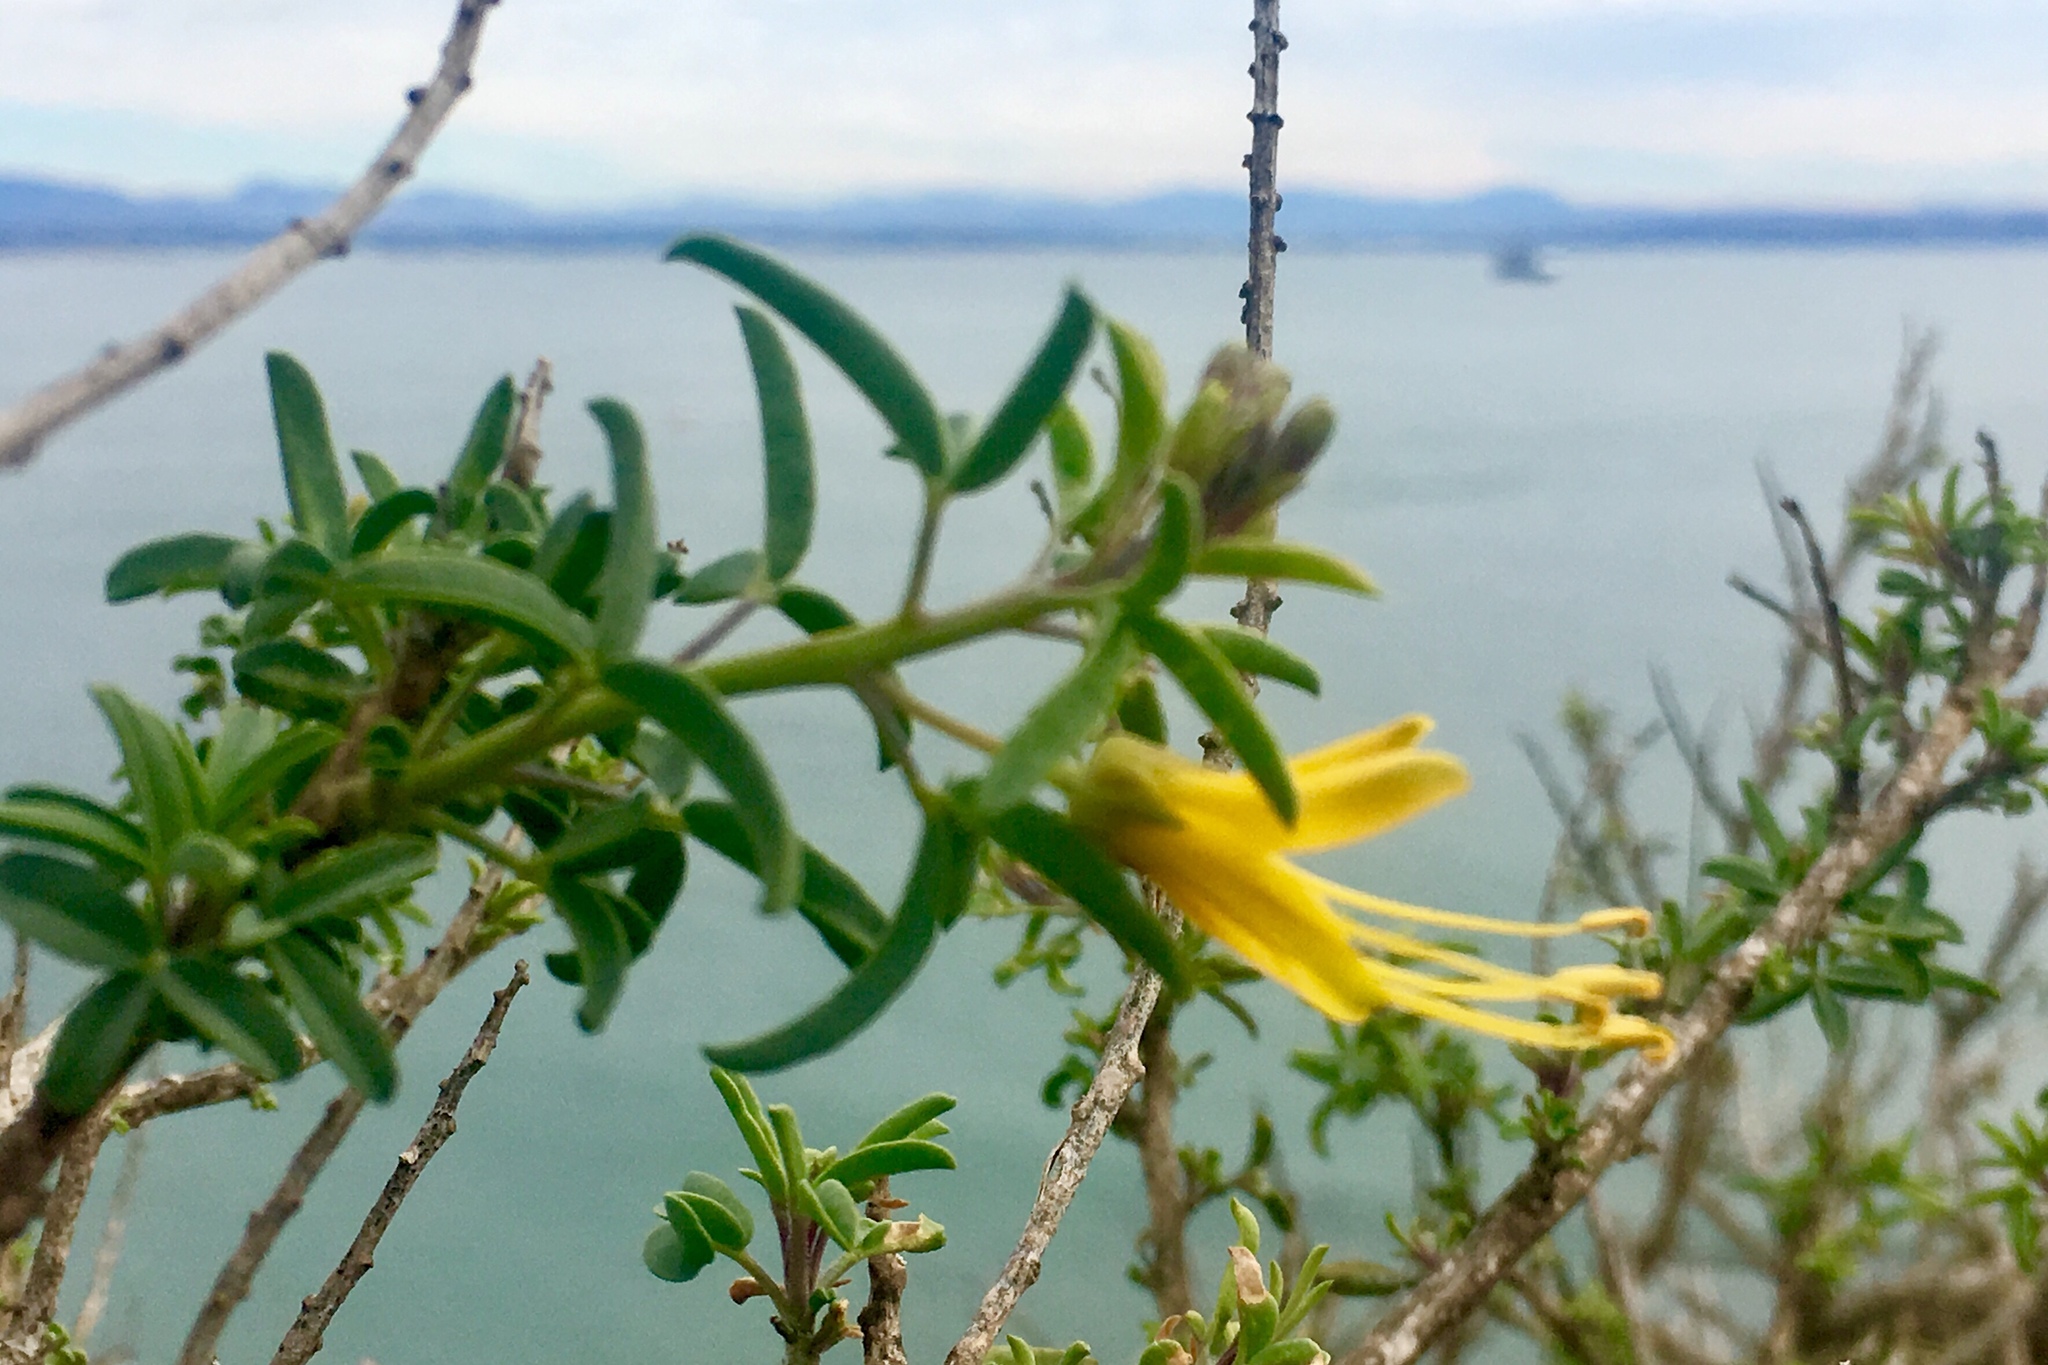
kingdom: Plantae
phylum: Tracheophyta
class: Magnoliopsida
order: Brassicales
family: Cleomaceae
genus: Cleomella
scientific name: Cleomella arborea
